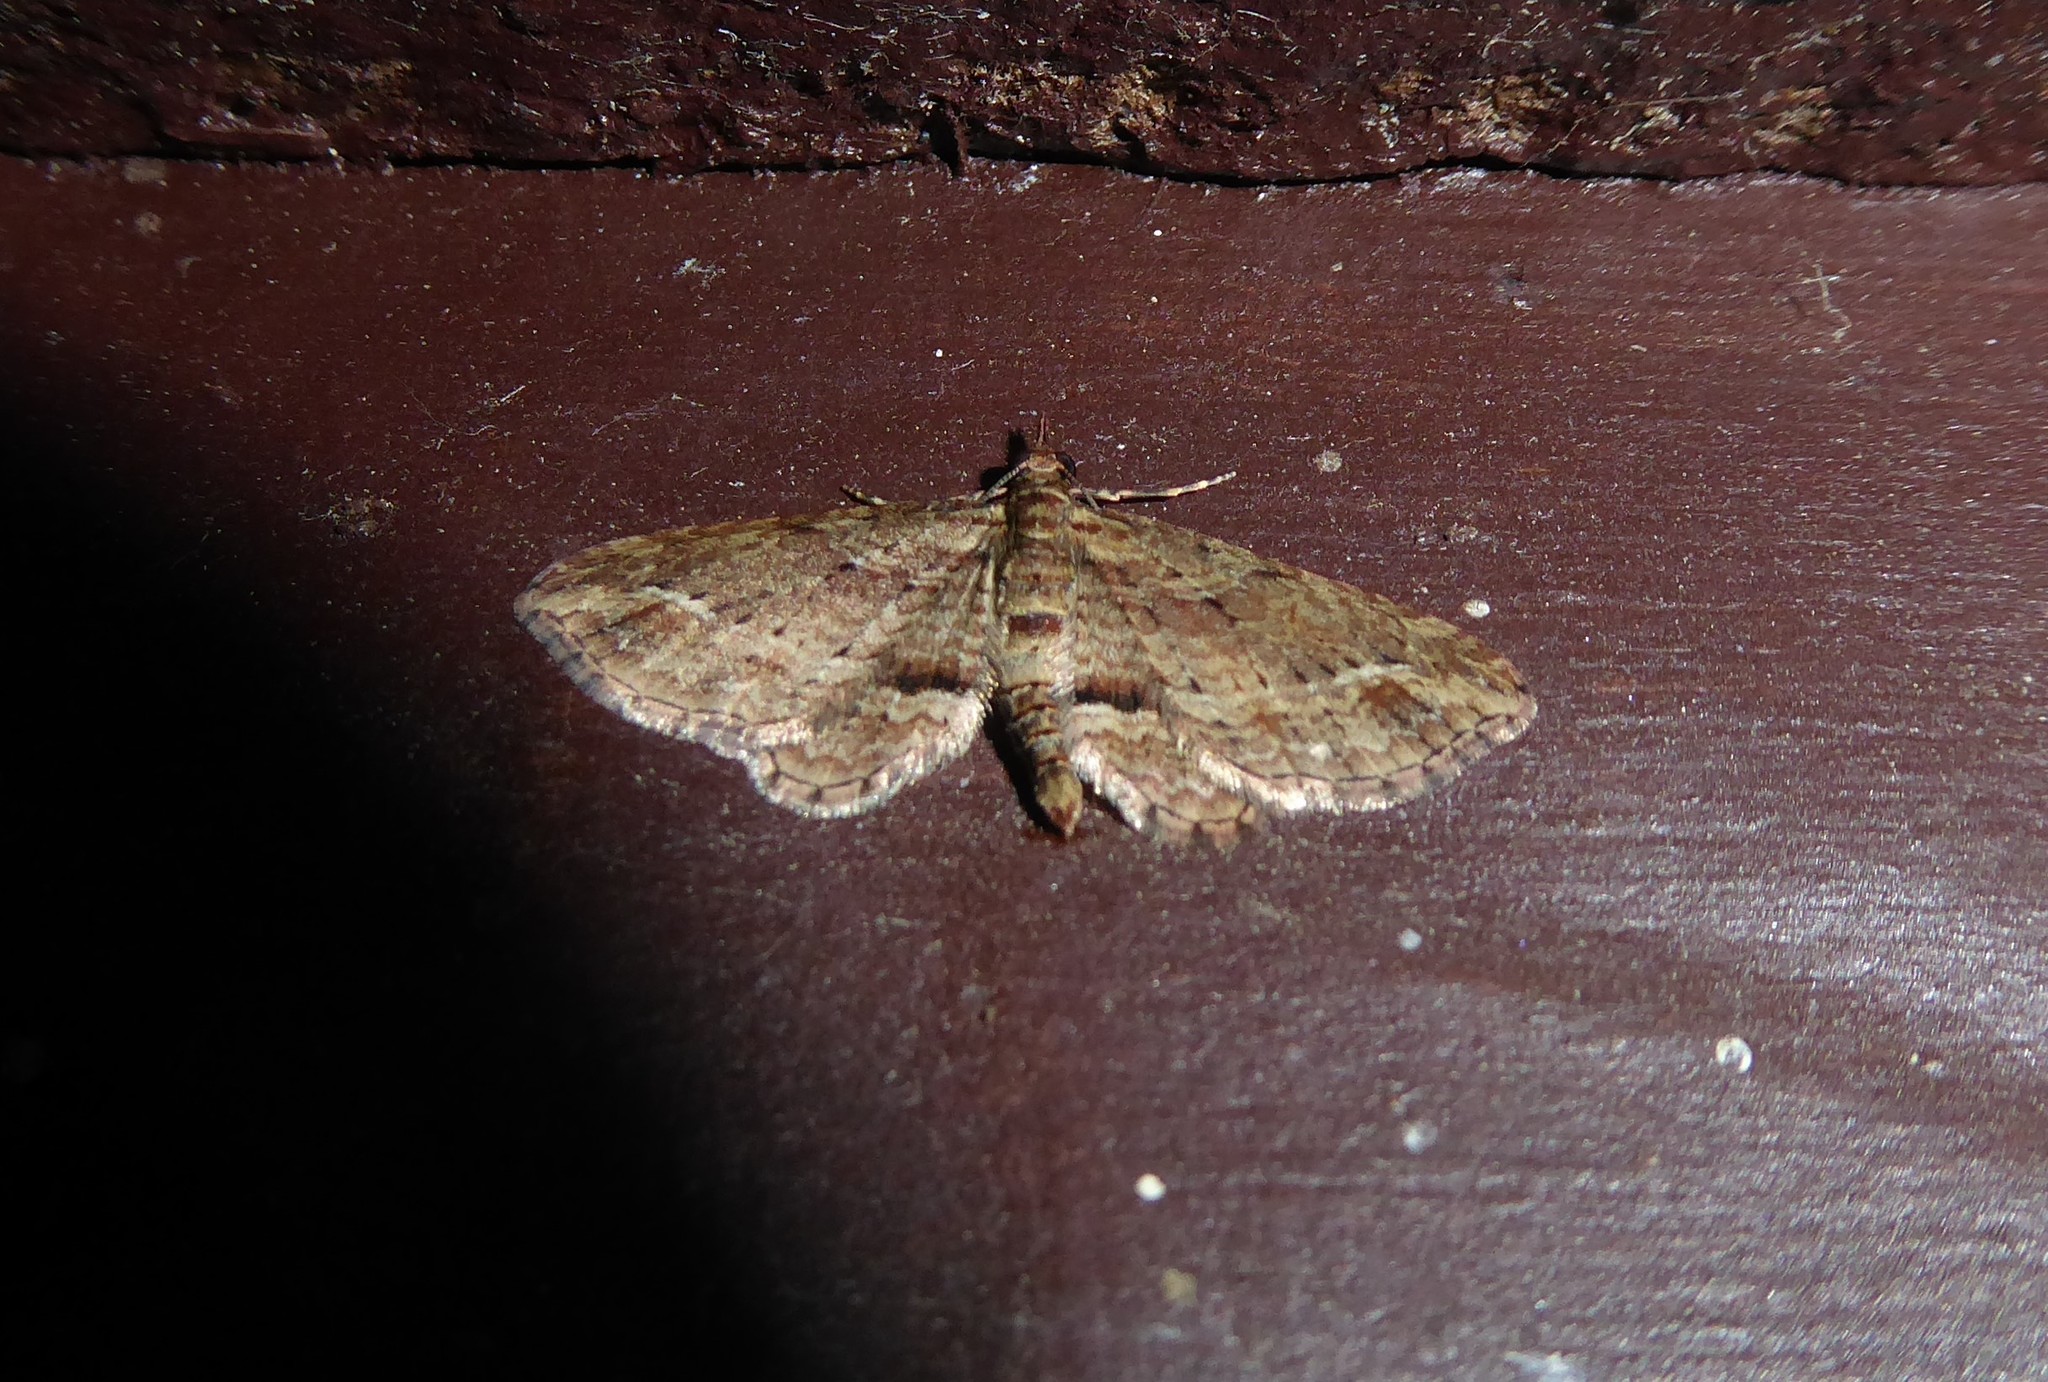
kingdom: Animalia
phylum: Arthropoda
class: Insecta
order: Lepidoptera
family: Geometridae
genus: Chloroclystis
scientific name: Chloroclystis filata
